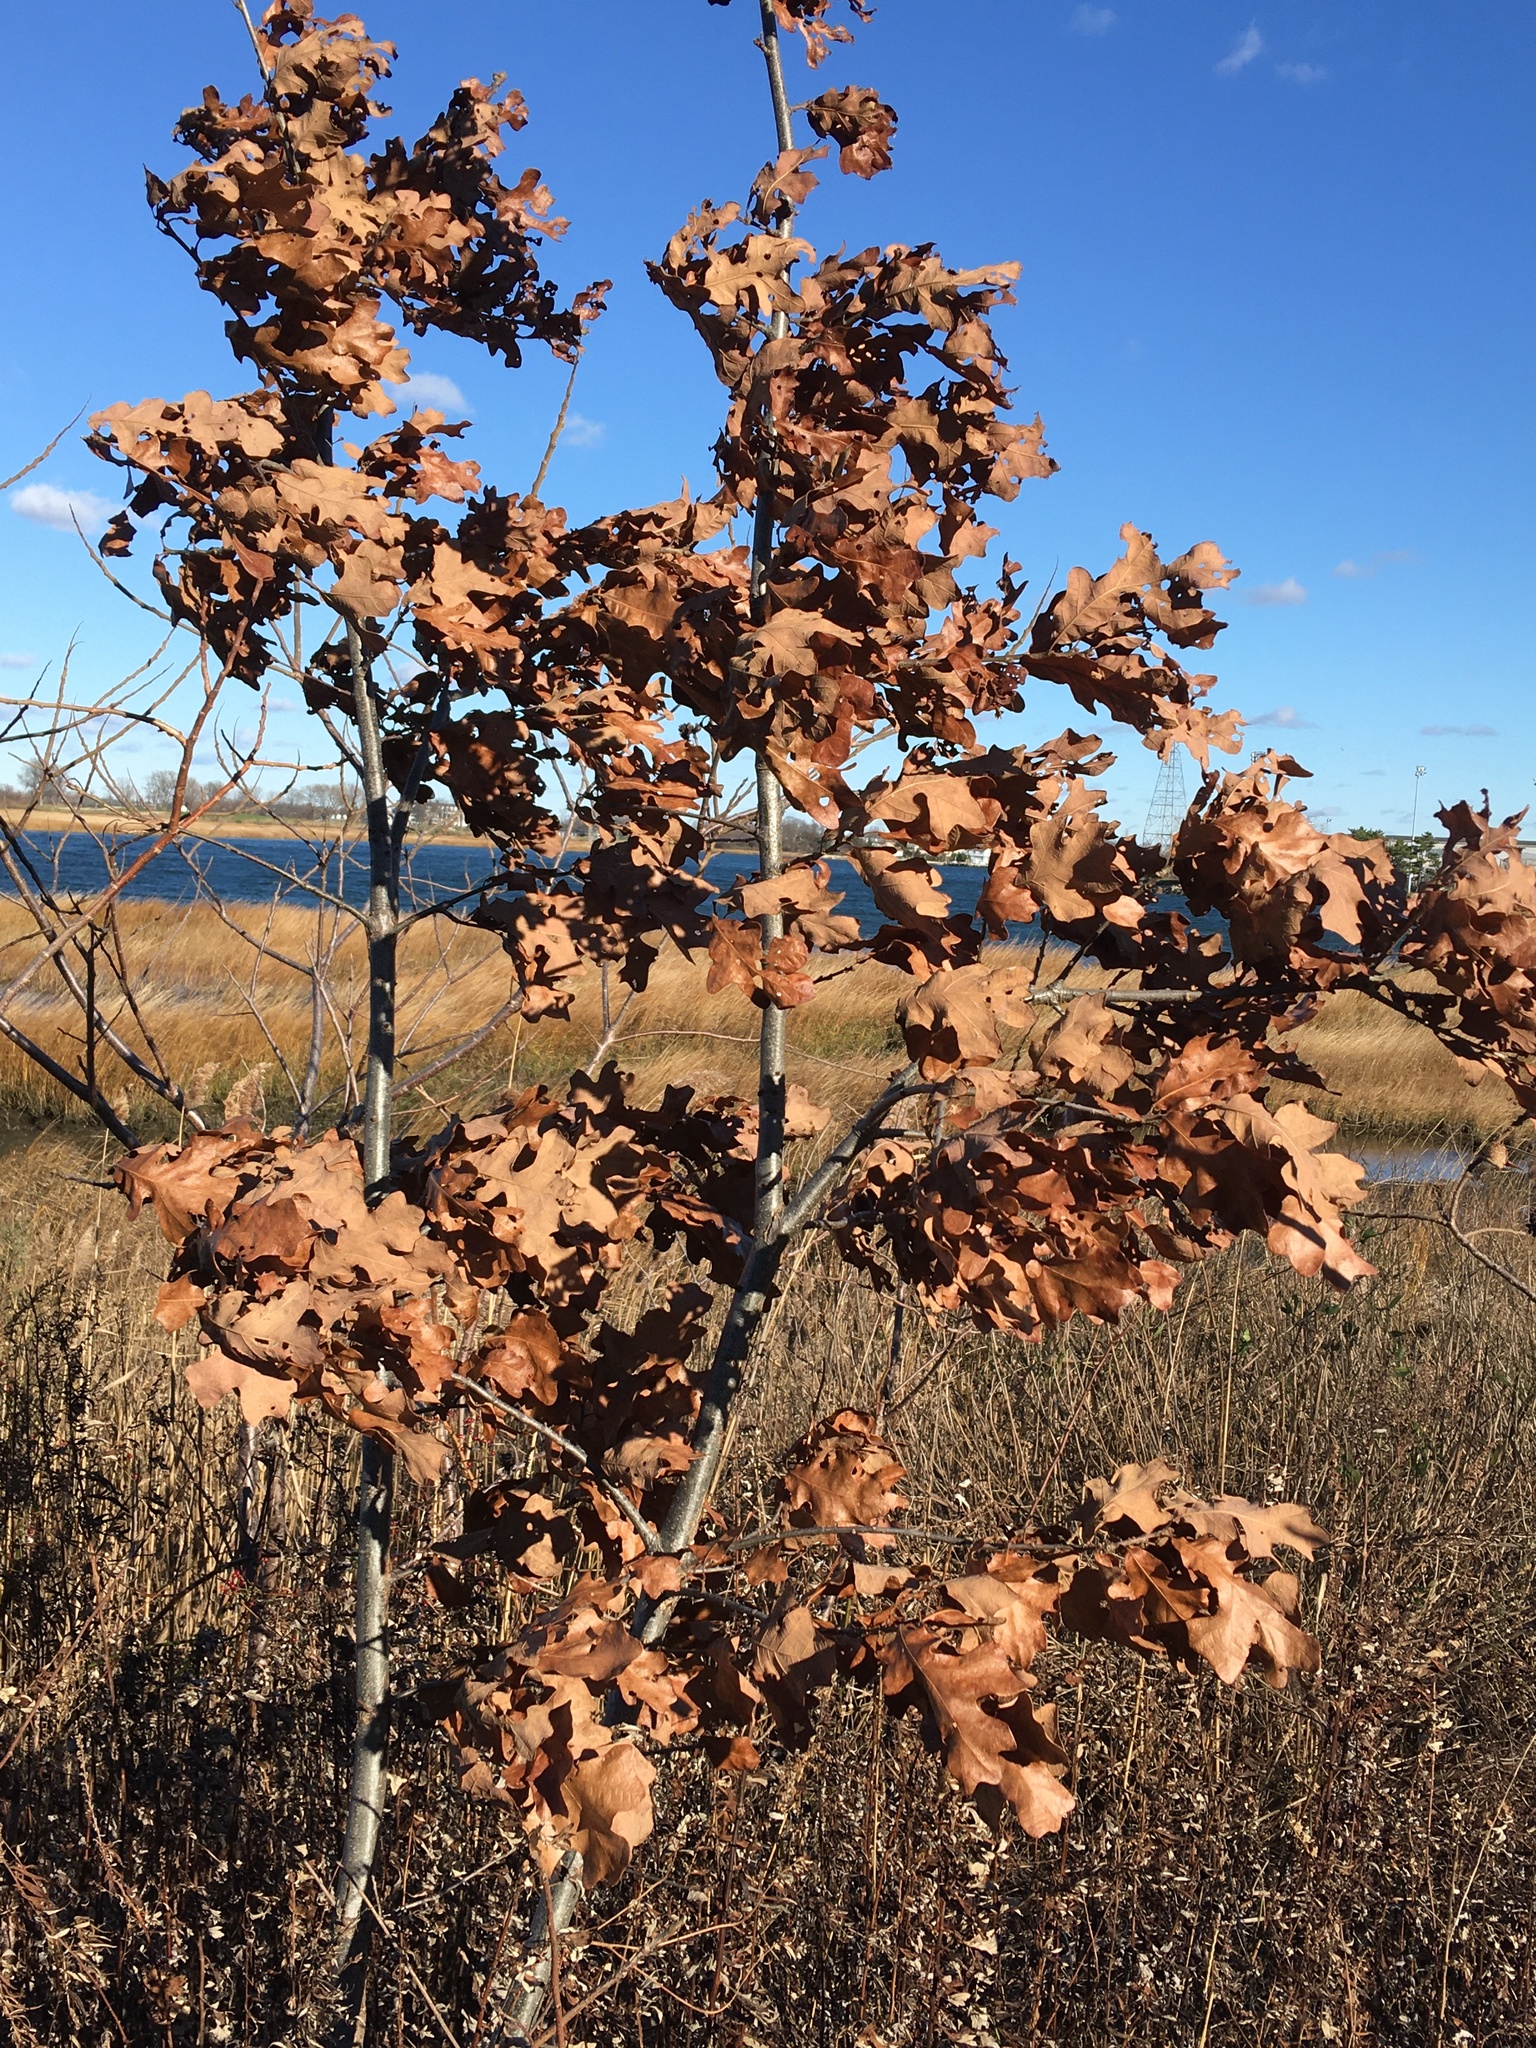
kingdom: Plantae
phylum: Tracheophyta
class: Magnoliopsida
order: Fagales
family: Fagaceae
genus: Quercus
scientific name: Quercus stellata
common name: Post oak
